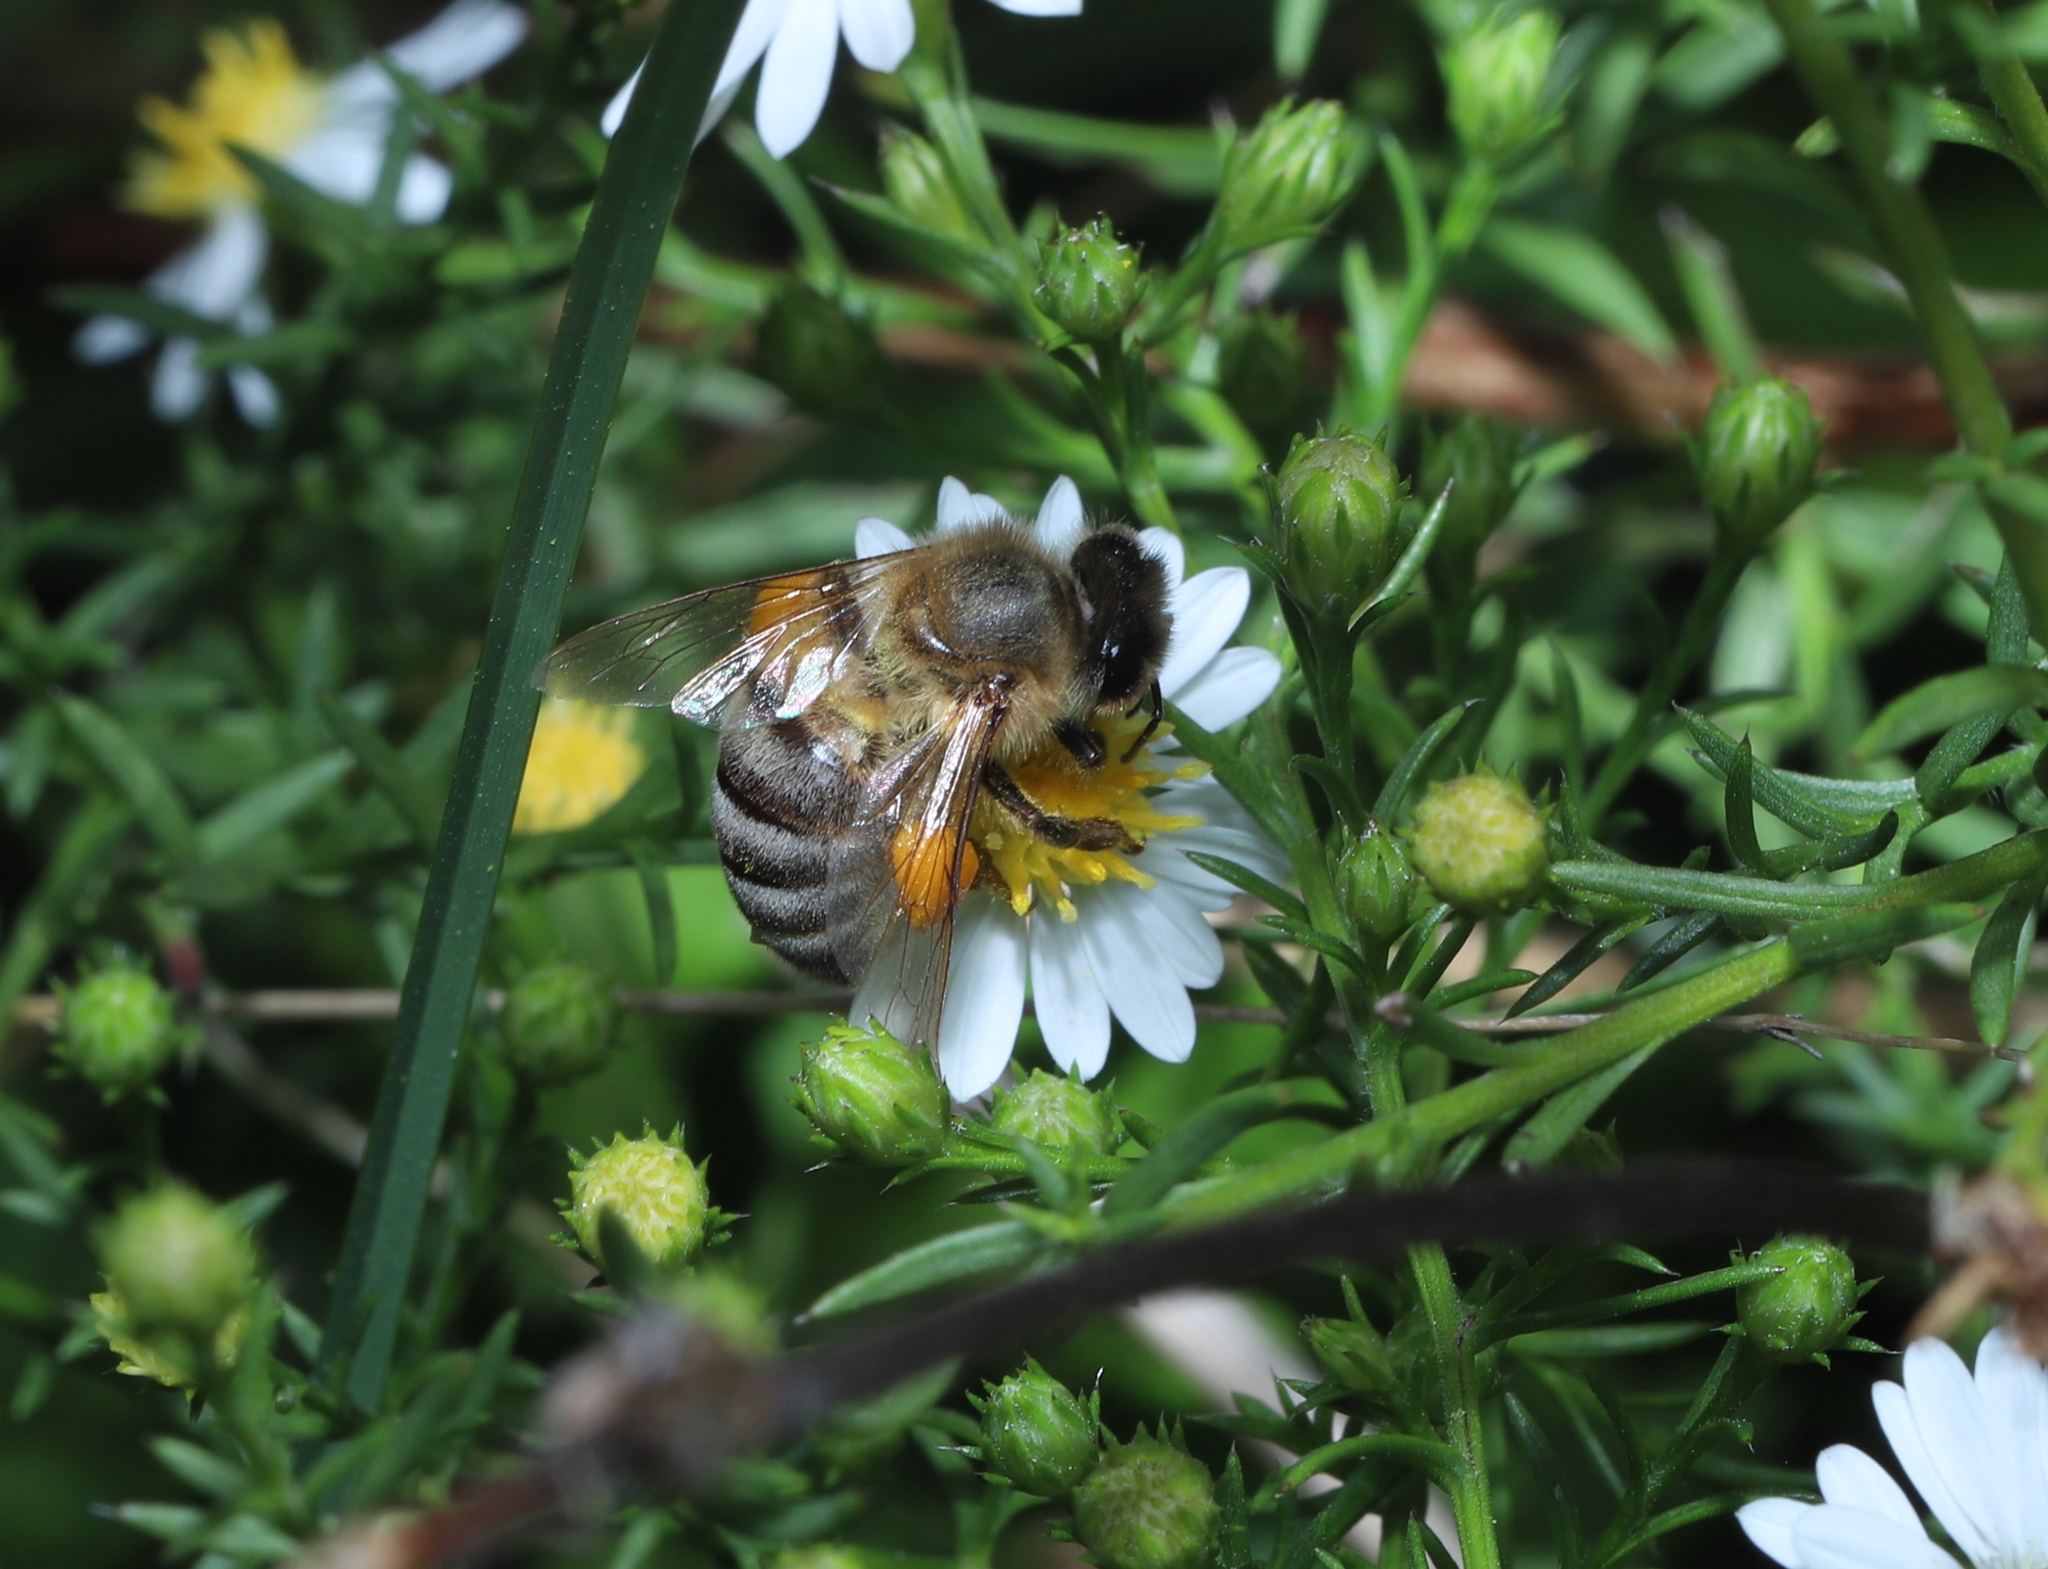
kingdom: Animalia
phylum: Arthropoda
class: Insecta
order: Hymenoptera
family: Apidae
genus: Apis
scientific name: Apis mellifera
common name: Honey bee
